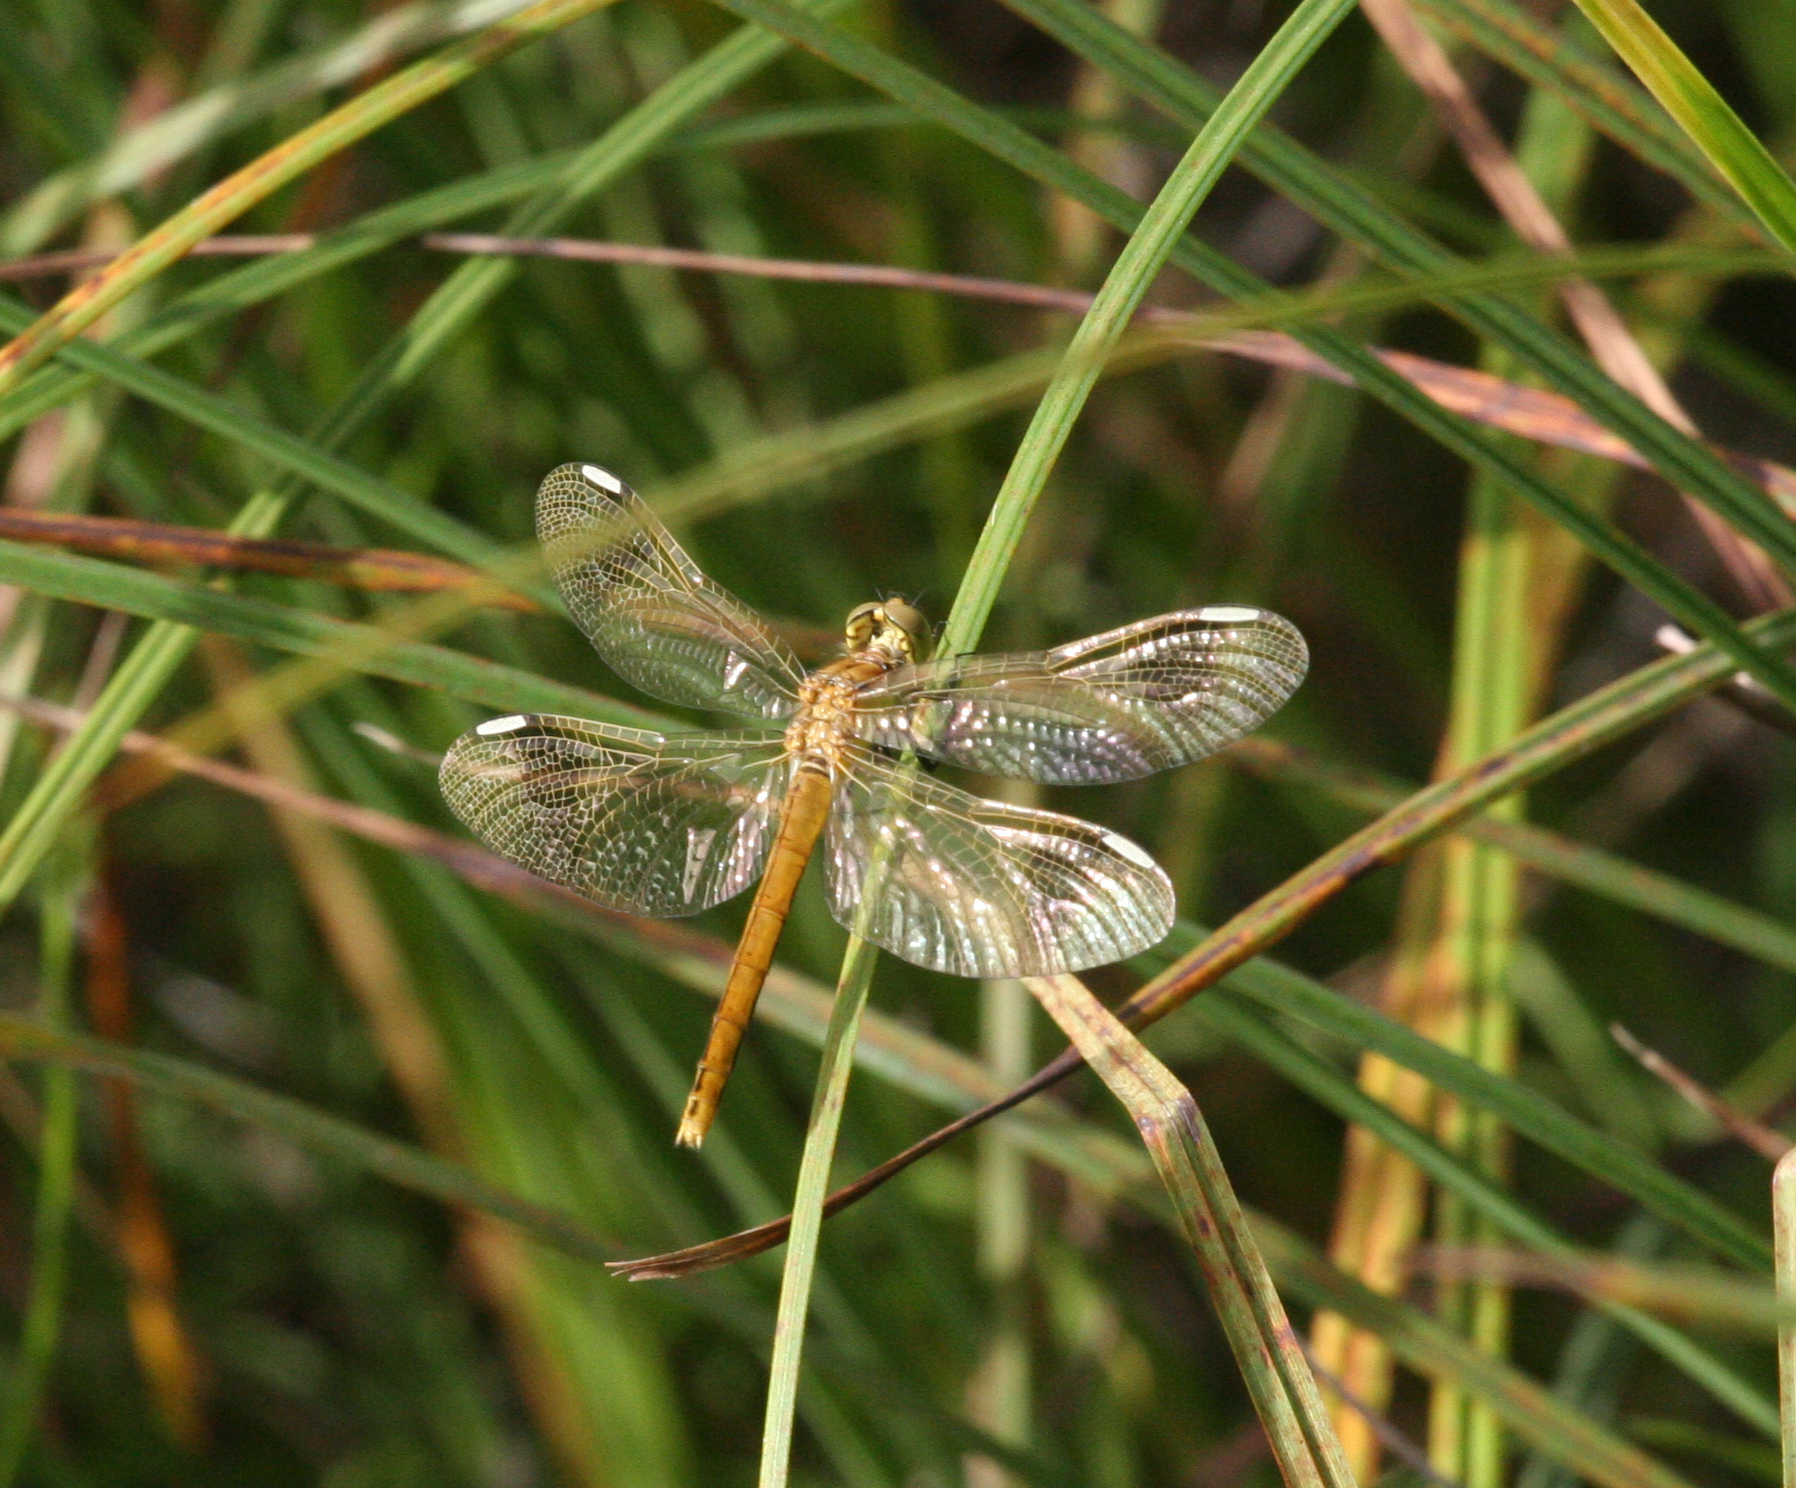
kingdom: Animalia
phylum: Arthropoda
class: Insecta
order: Odonata
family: Libellulidae
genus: Sympetrum
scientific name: Sympetrum pedemontanum
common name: Banded darter
